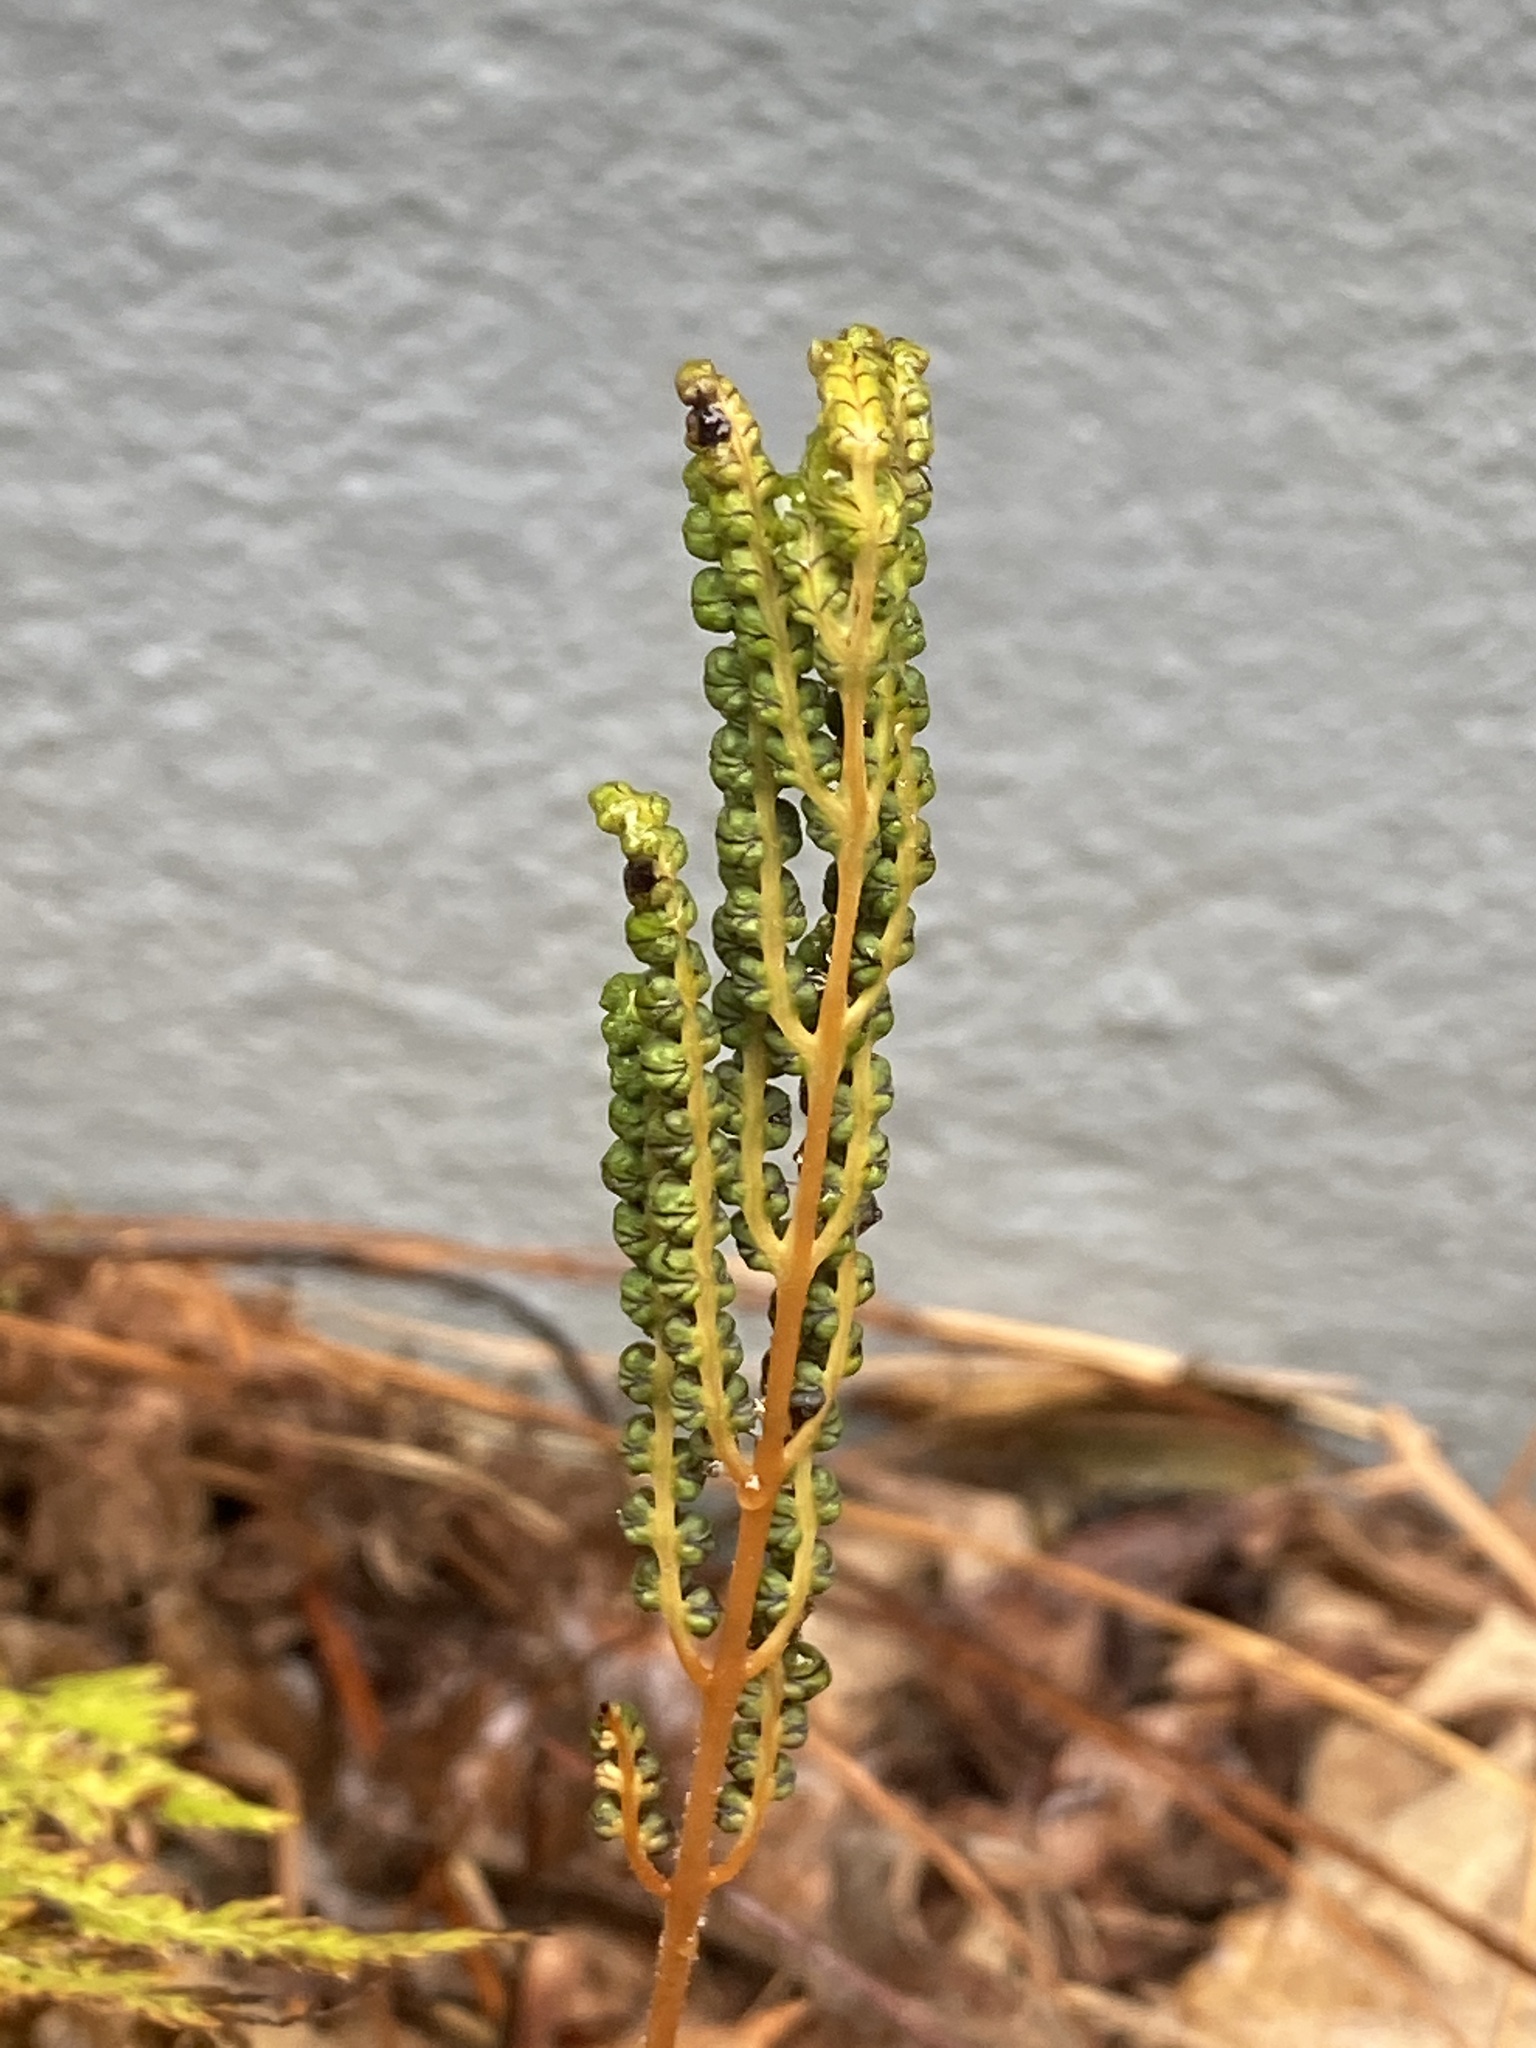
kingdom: Plantae
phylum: Tracheophyta
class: Polypodiopsida
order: Polypodiales
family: Onocleaceae
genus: Onoclea
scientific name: Onoclea sensibilis
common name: Sensitive fern
